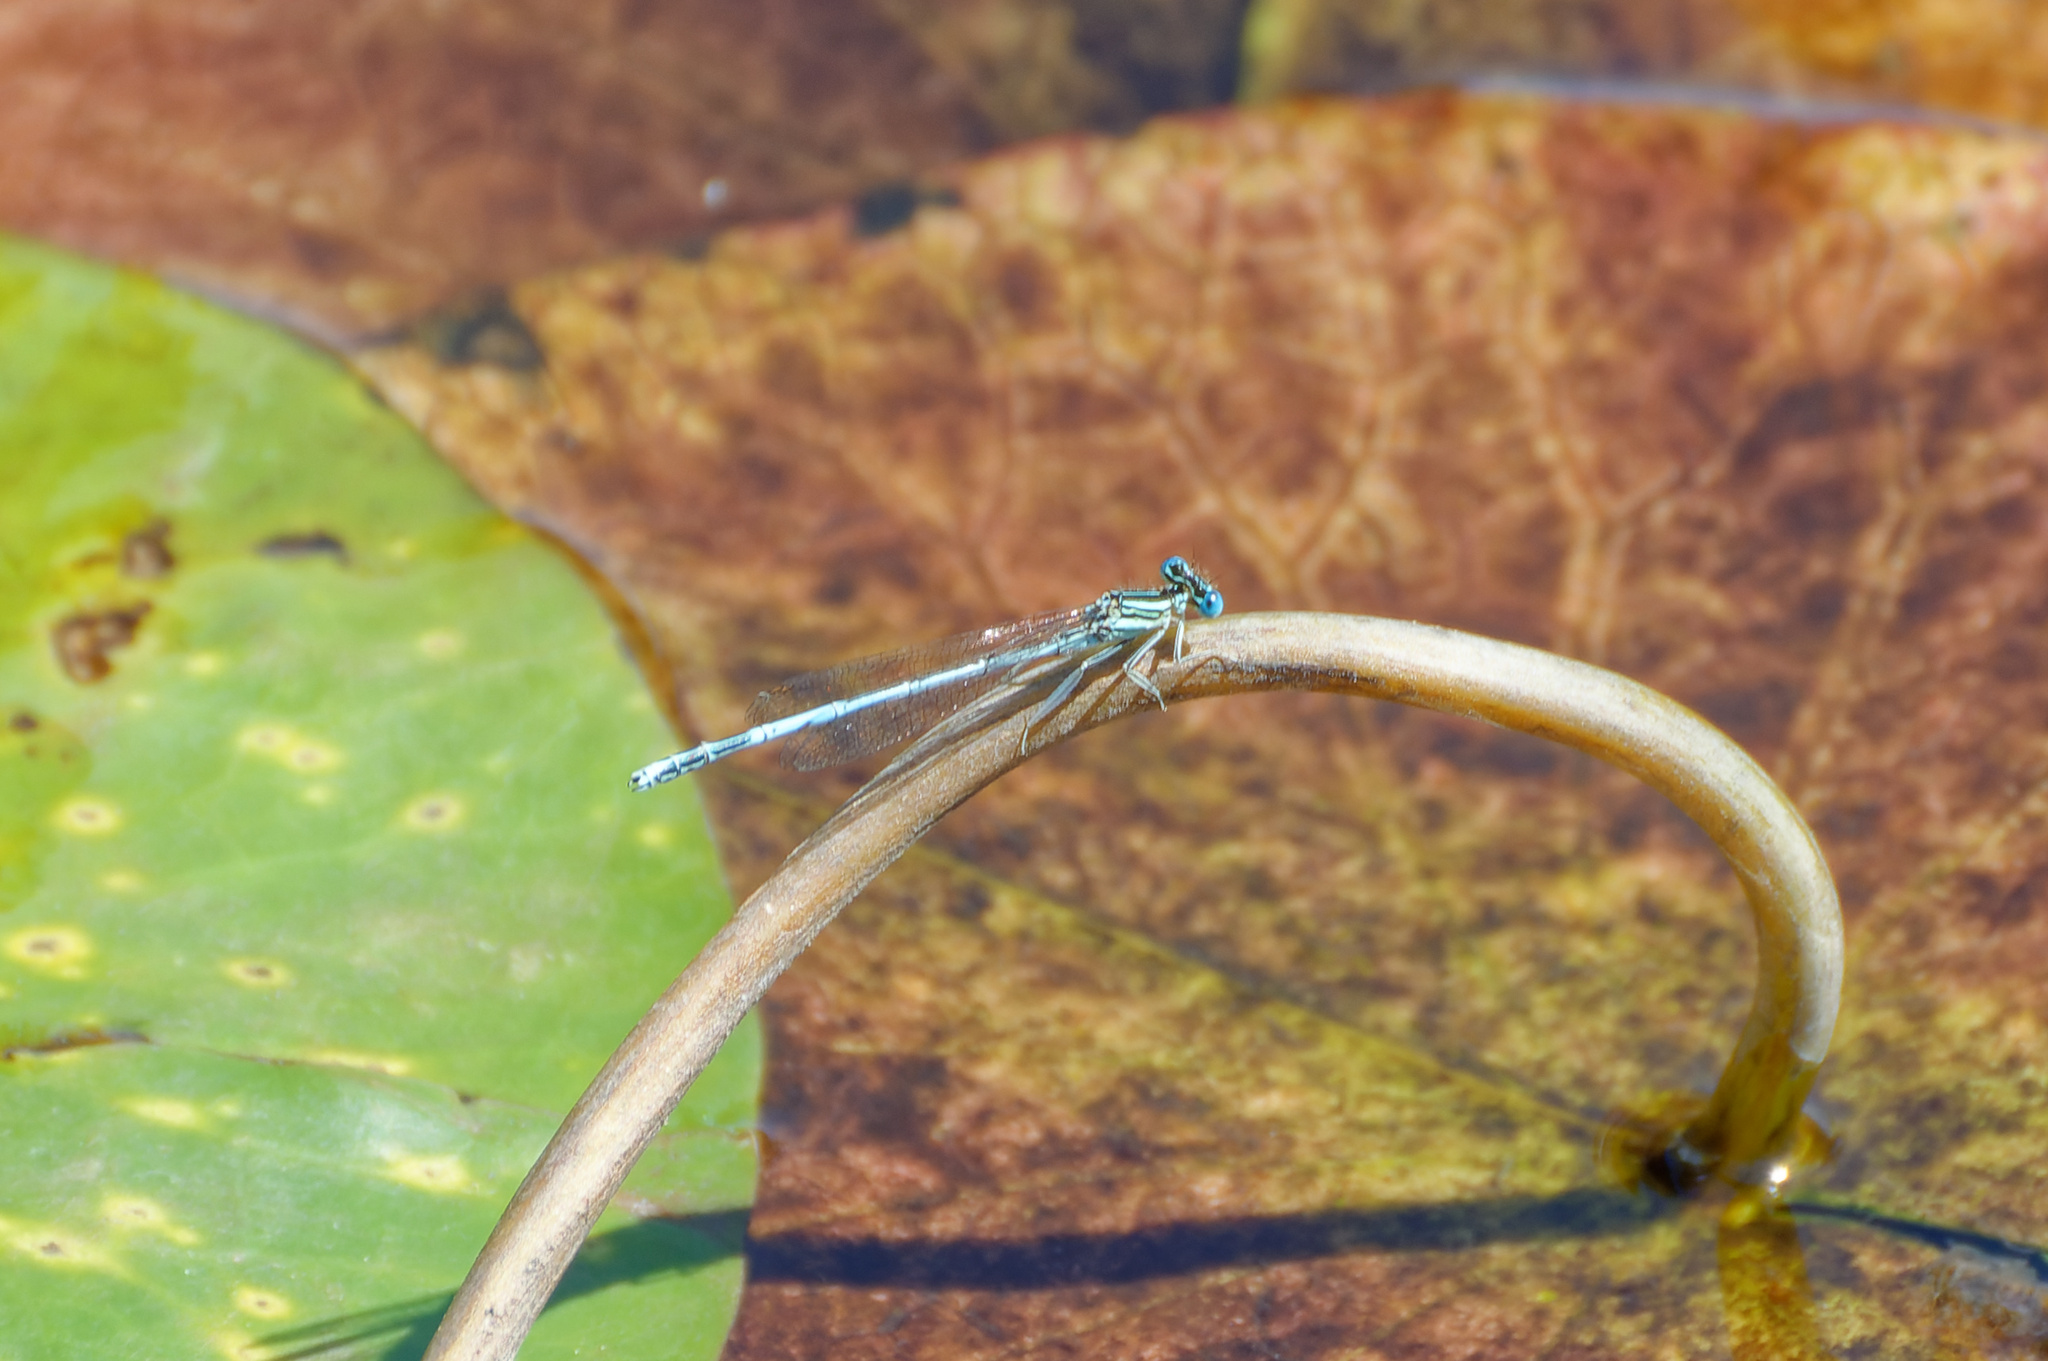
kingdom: Animalia
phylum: Arthropoda
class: Insecta
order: Odonata
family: Platycnemididae
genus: Platycnemis
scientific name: Platycnemis pennipes
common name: White-legged damselfly
